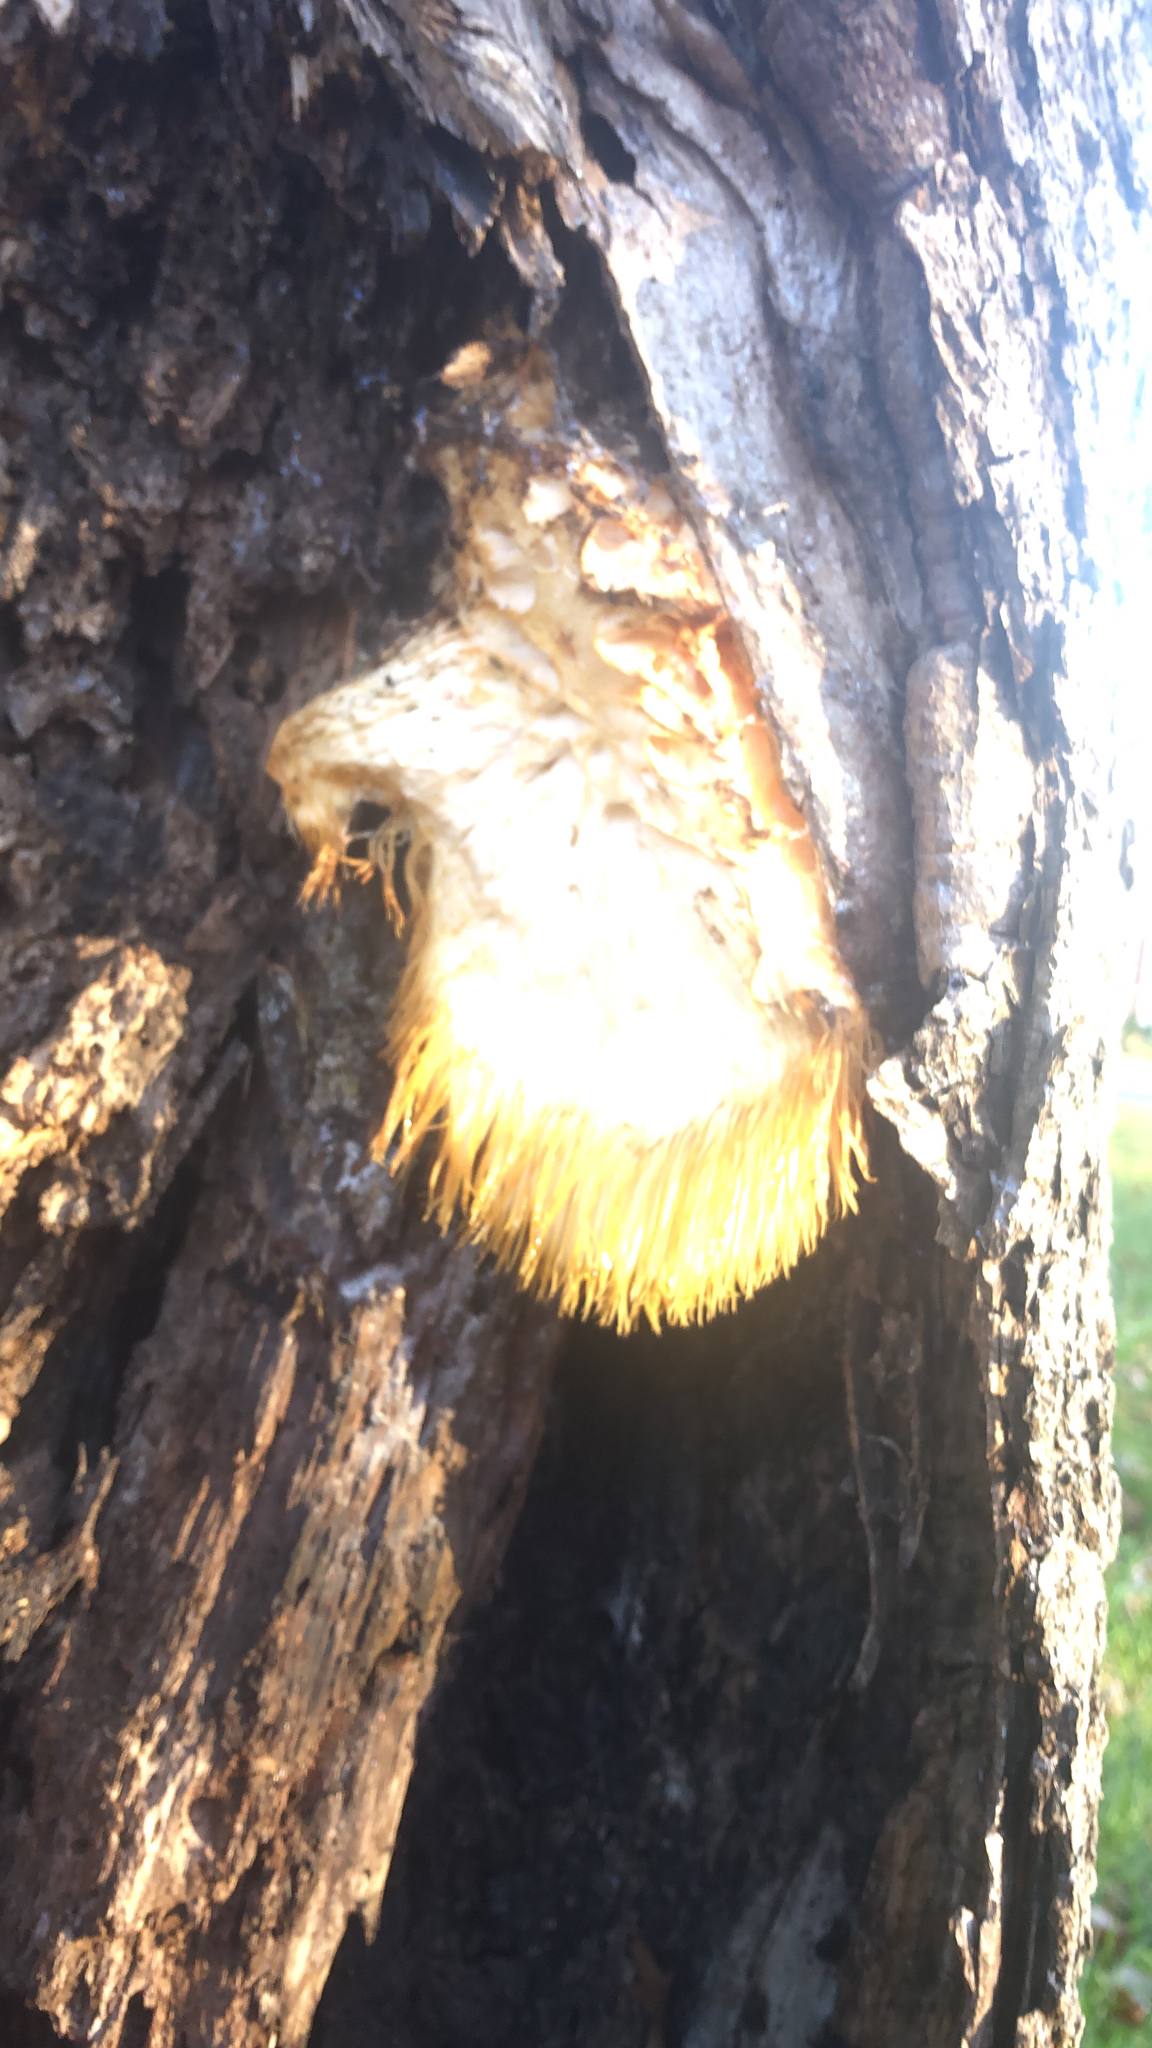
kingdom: Fungi
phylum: Basidiomycota
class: Agaricomycetes
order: Russulales
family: Hericiaceae
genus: Hericium
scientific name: Hericium erinaceus
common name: Bearded tooth
